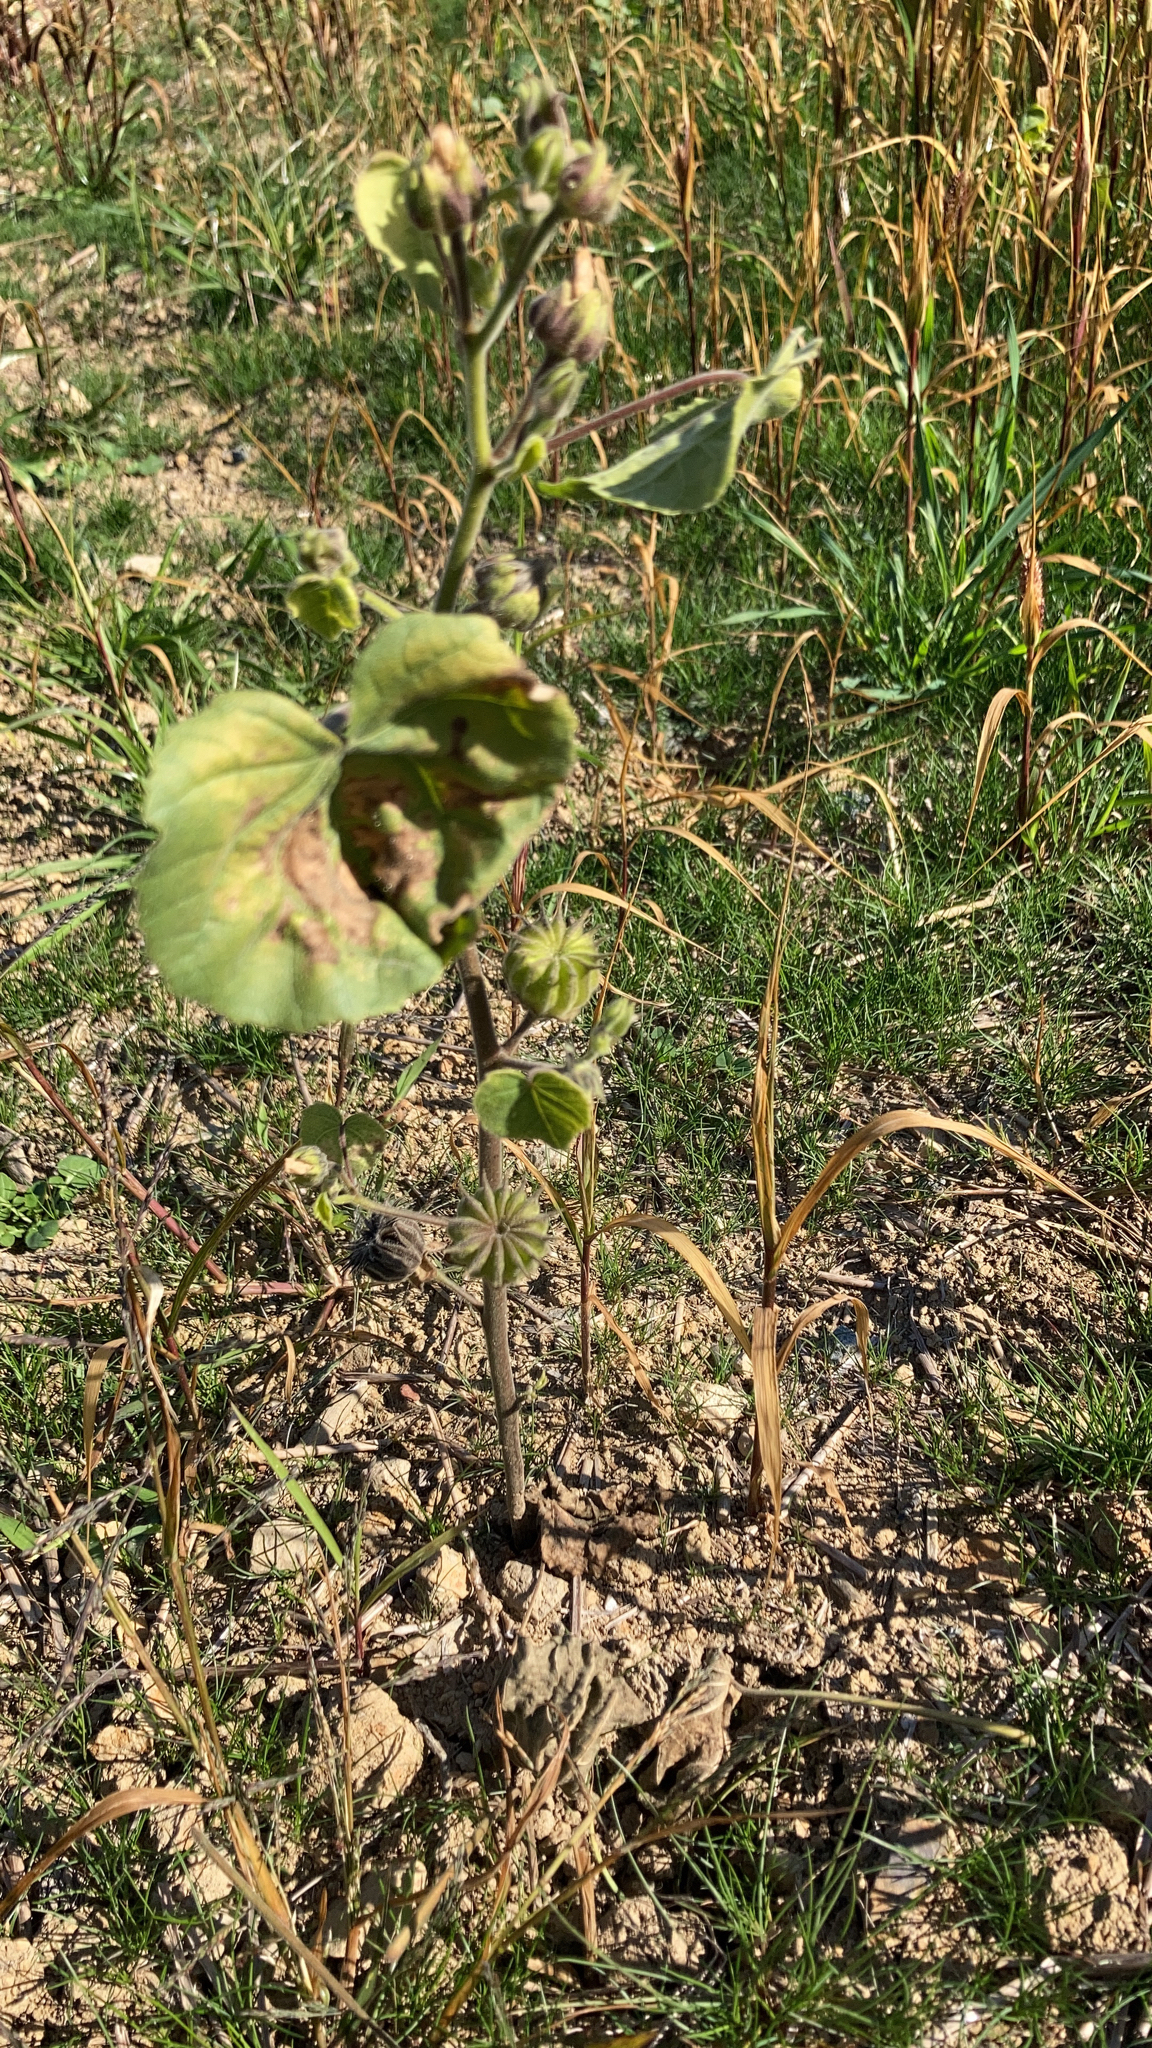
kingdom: Plantae
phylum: Tracheophyta
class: Magnoliopsida
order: Malvales
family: Malvaceae
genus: Abutilon
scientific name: Abutilon theophrasti
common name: Velvetleaf
